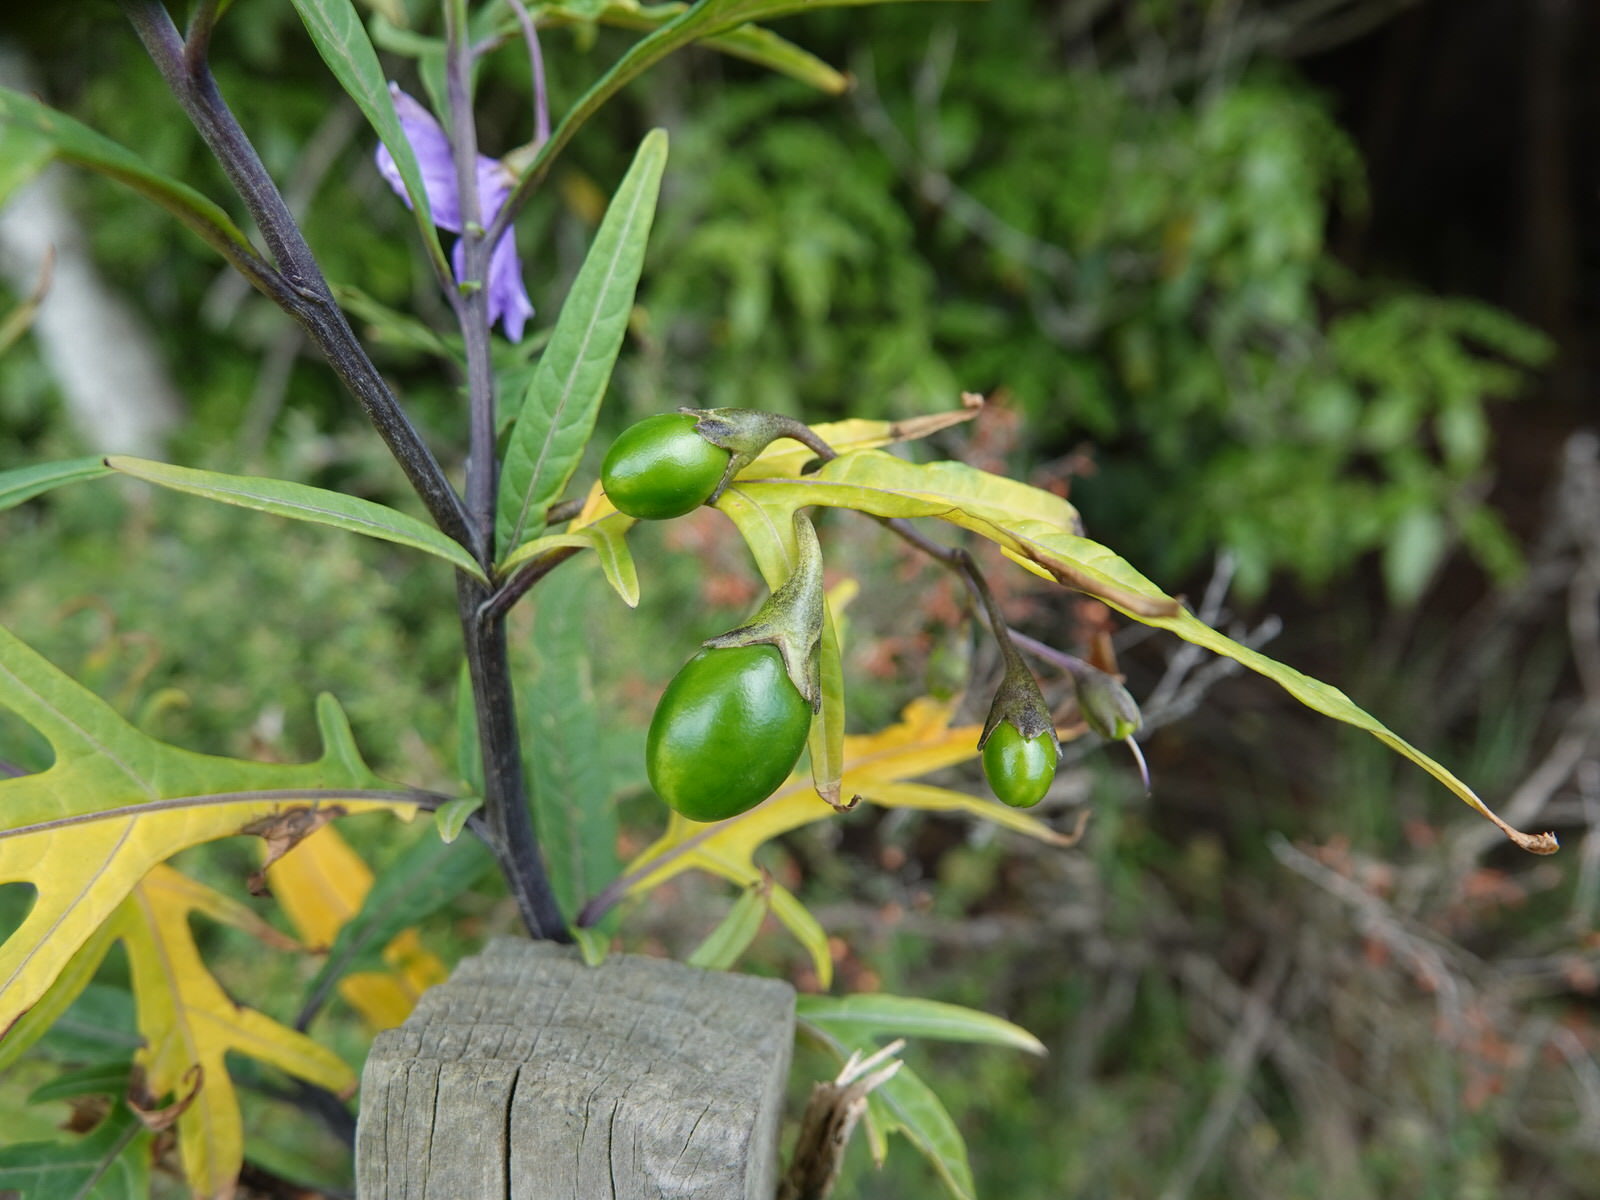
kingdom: Plantae
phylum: Tracheophyta
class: Magnoliopsida
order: Solanales
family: Solanaceae
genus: Solanum
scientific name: Solanum laciniatum
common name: Kangaroo-apple
